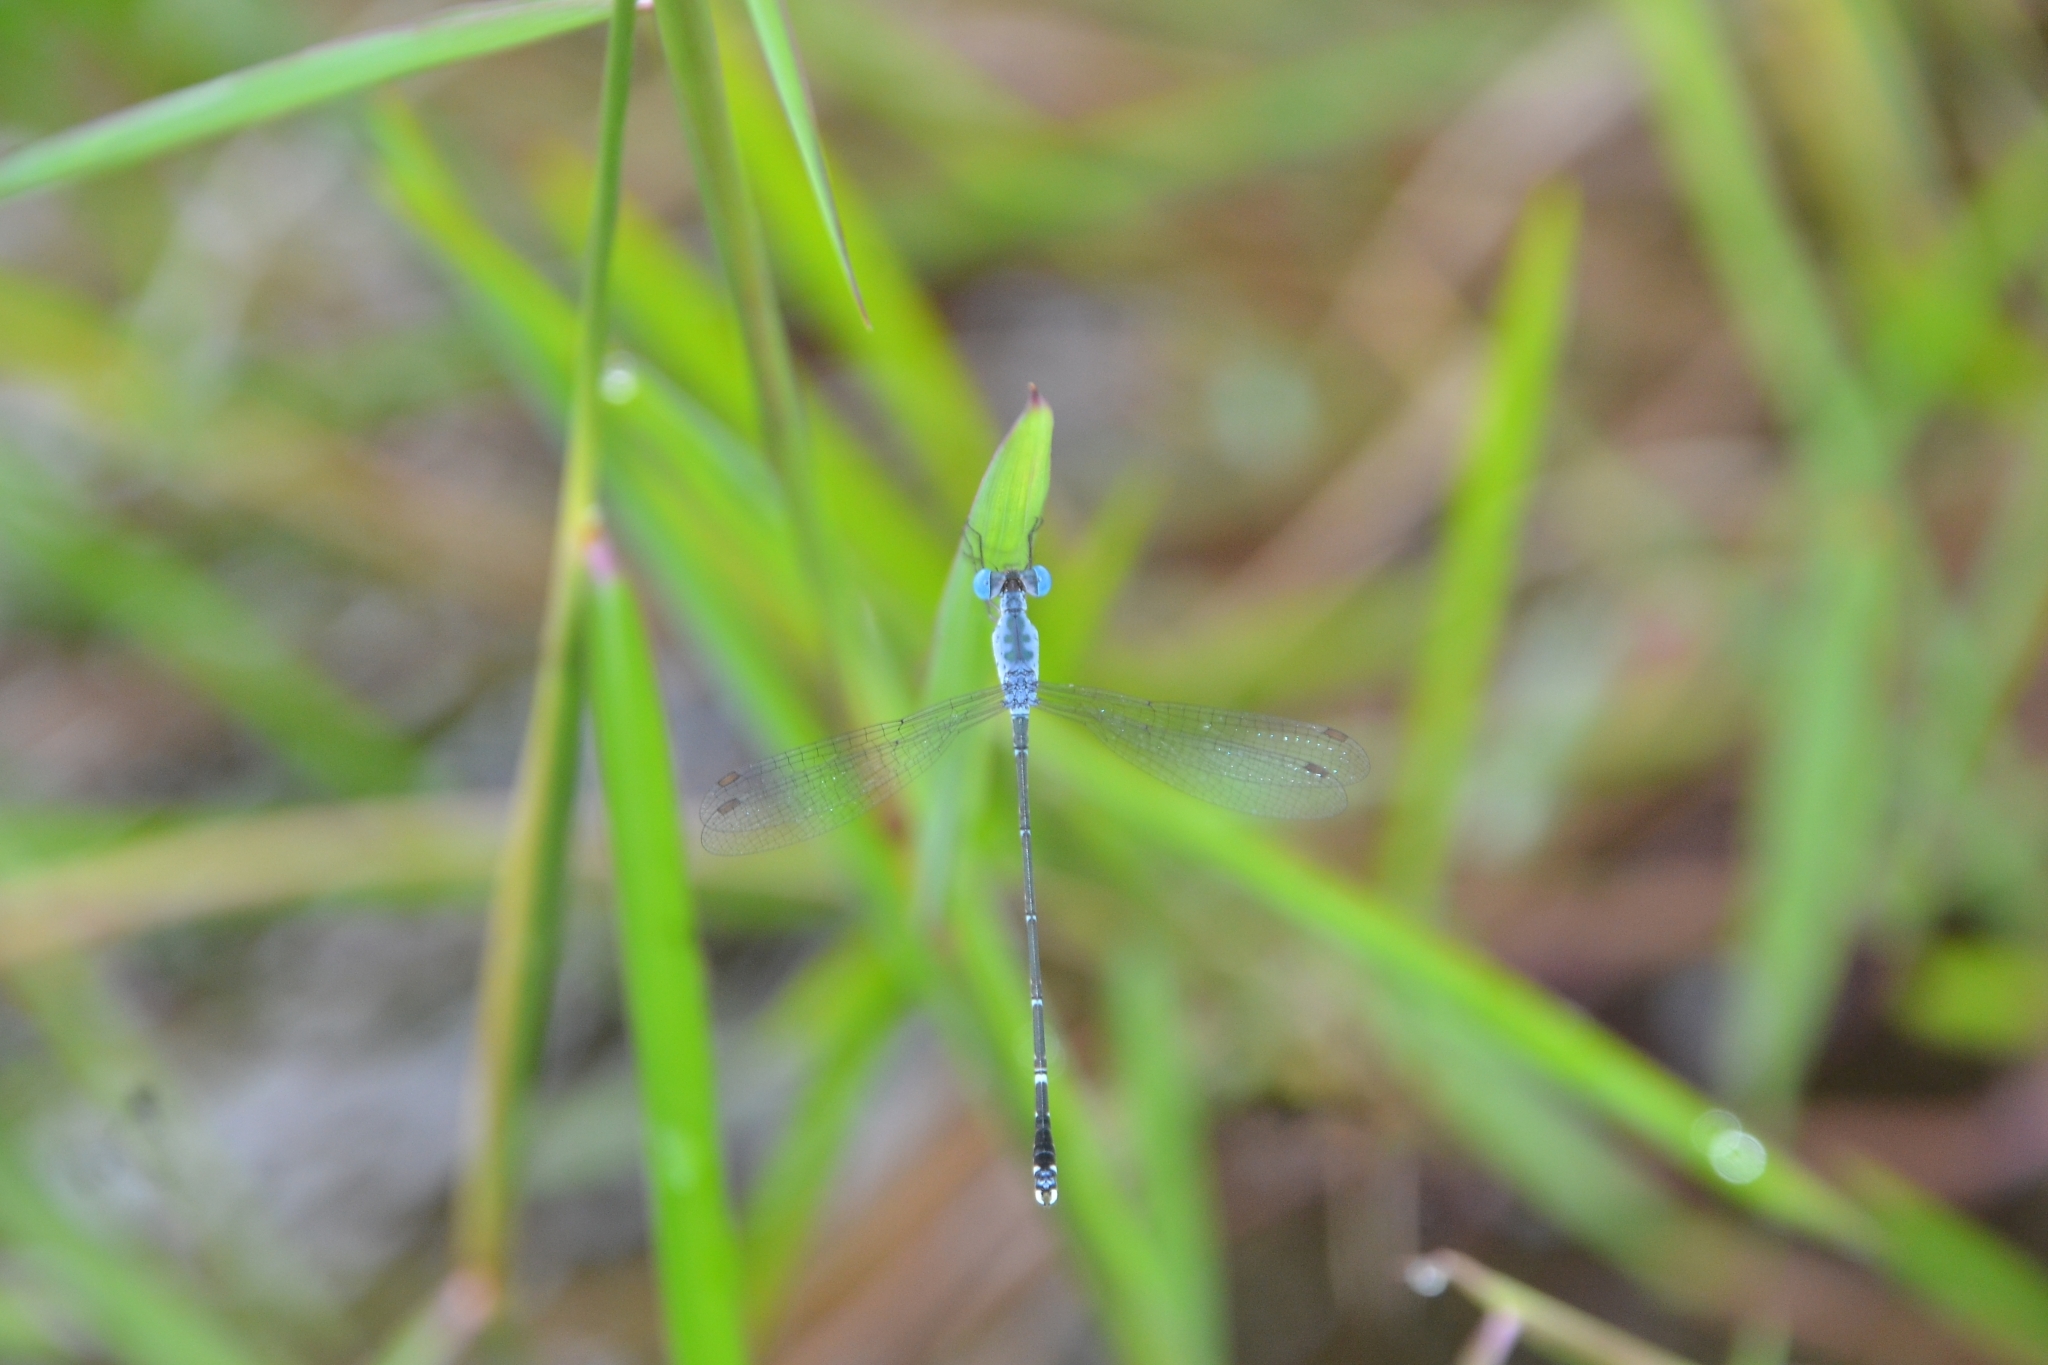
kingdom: Animalia
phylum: Arthropoda
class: Insecta
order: Odonata
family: Lestidae
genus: Lestes
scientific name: Lestes praemorsus
